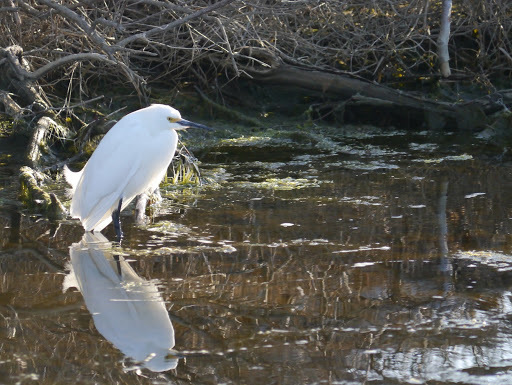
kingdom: Animalia
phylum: Chordata
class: Aves
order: Pelecaniformes
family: Ardeidae
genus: Egretta
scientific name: Egretta thula
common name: Snowy egret
